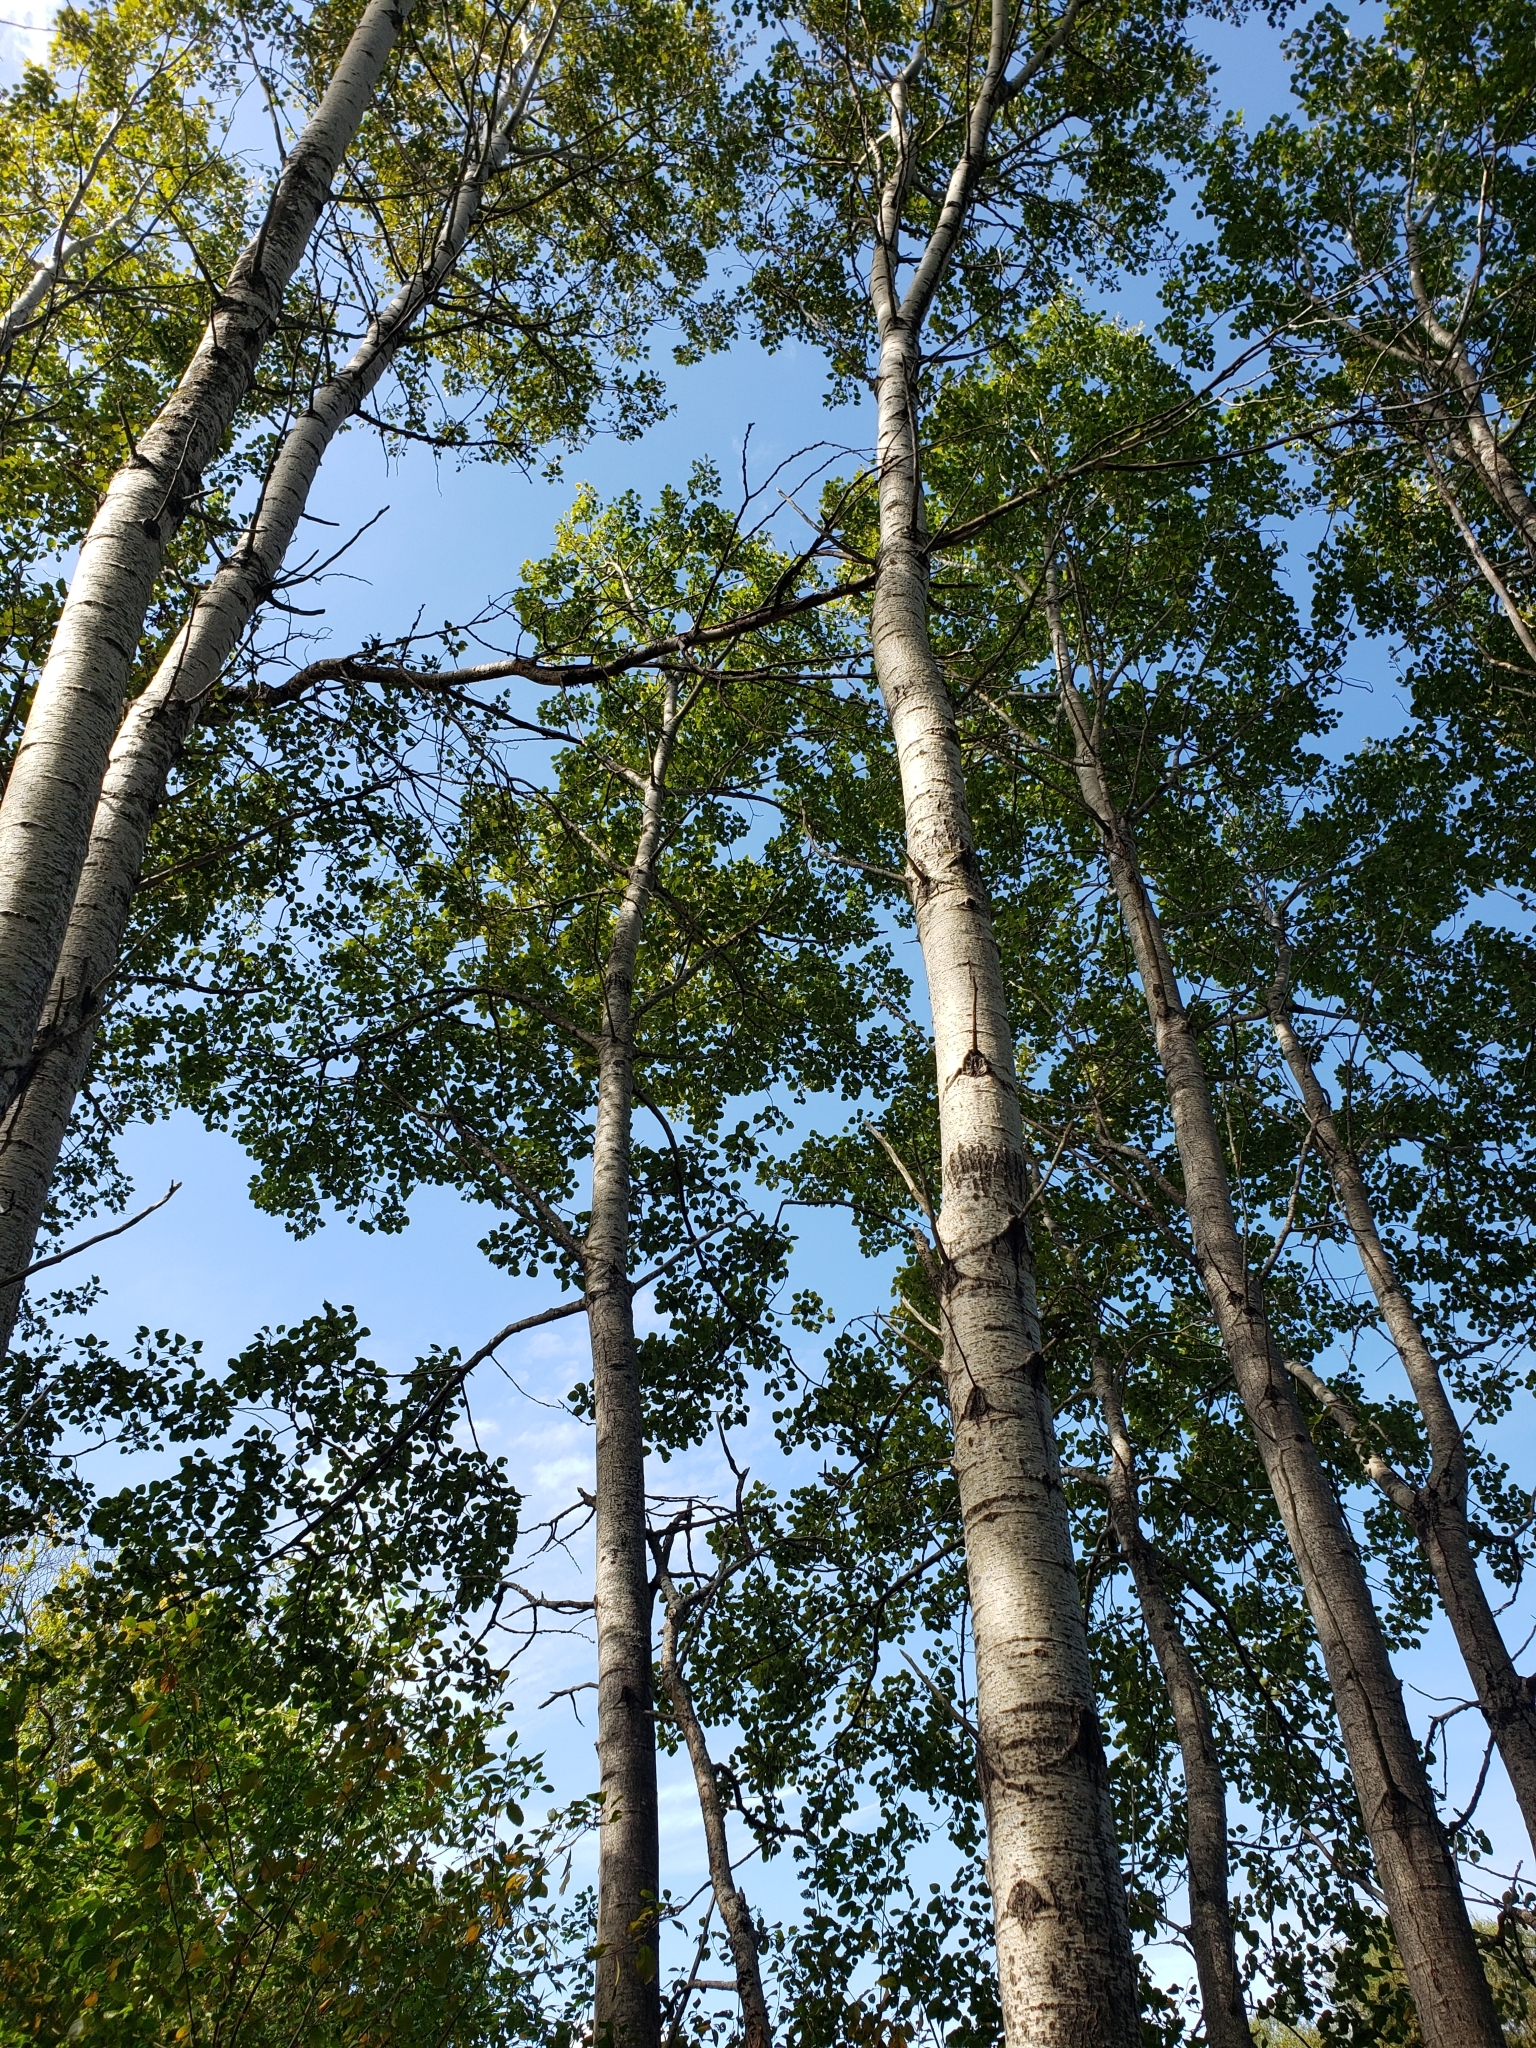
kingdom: Plantae
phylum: Tracheophyta
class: Magnoliopsida
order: Malpighiales
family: Salicaceae
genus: Populus
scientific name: Populus tremuloides
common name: Quaking aspen
